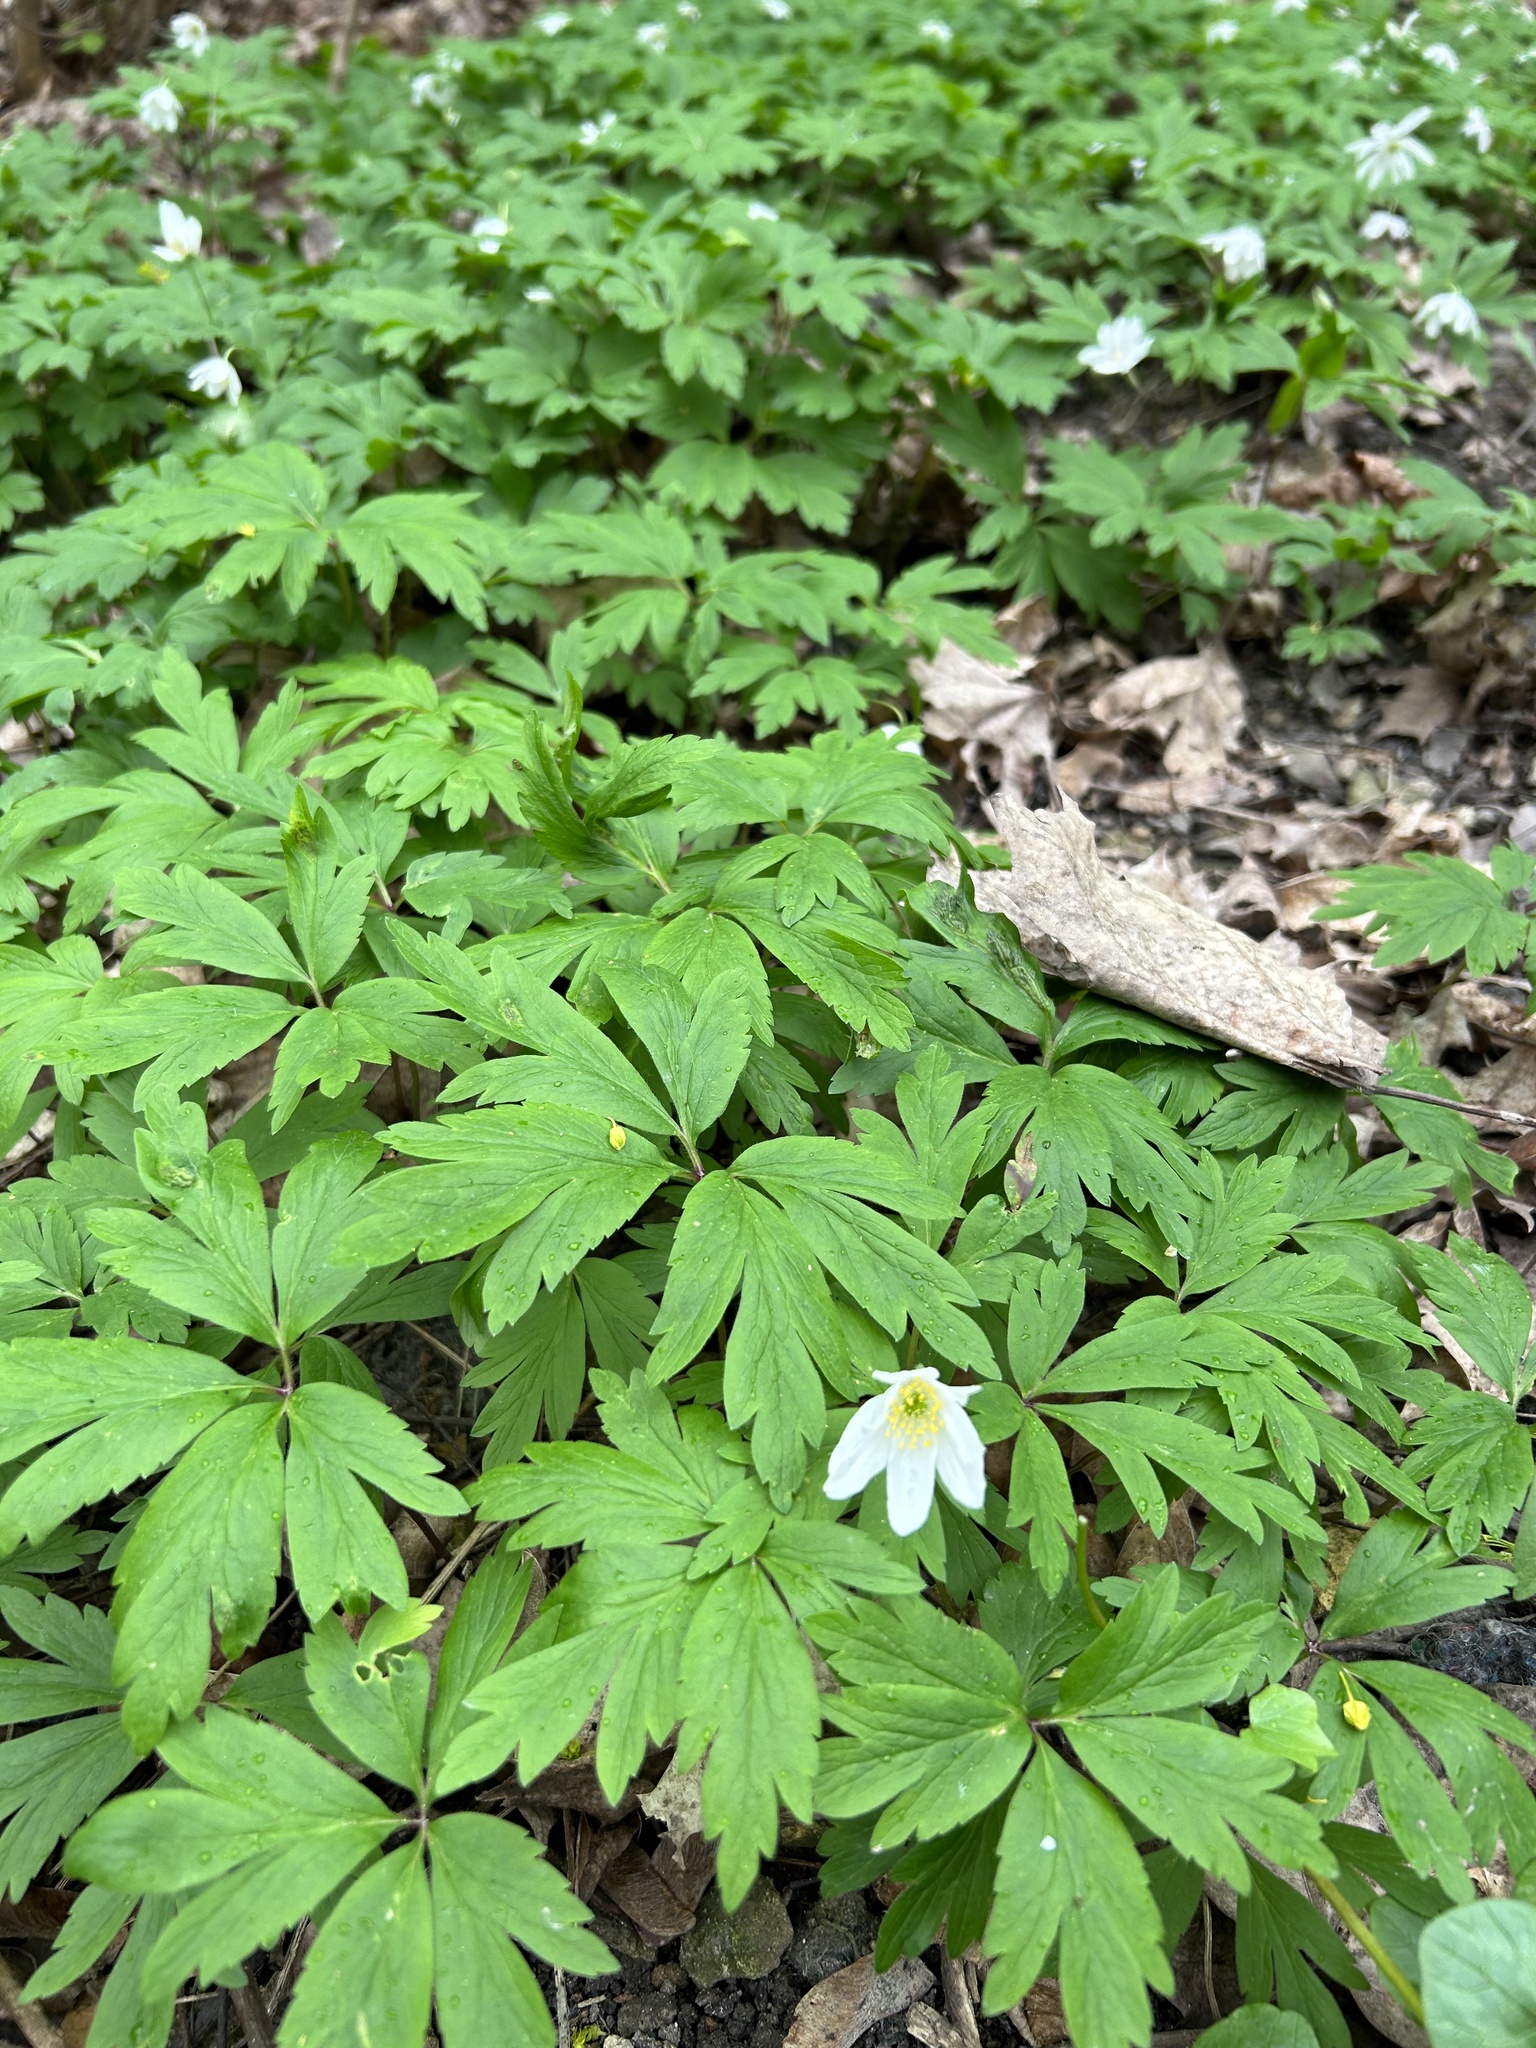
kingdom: Plantae
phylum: Tracheophyta
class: Magnoliopsida
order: Ranunculales
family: Ranunculaceae
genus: Anemone
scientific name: Anemone nemorosa
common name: Wood anemone
